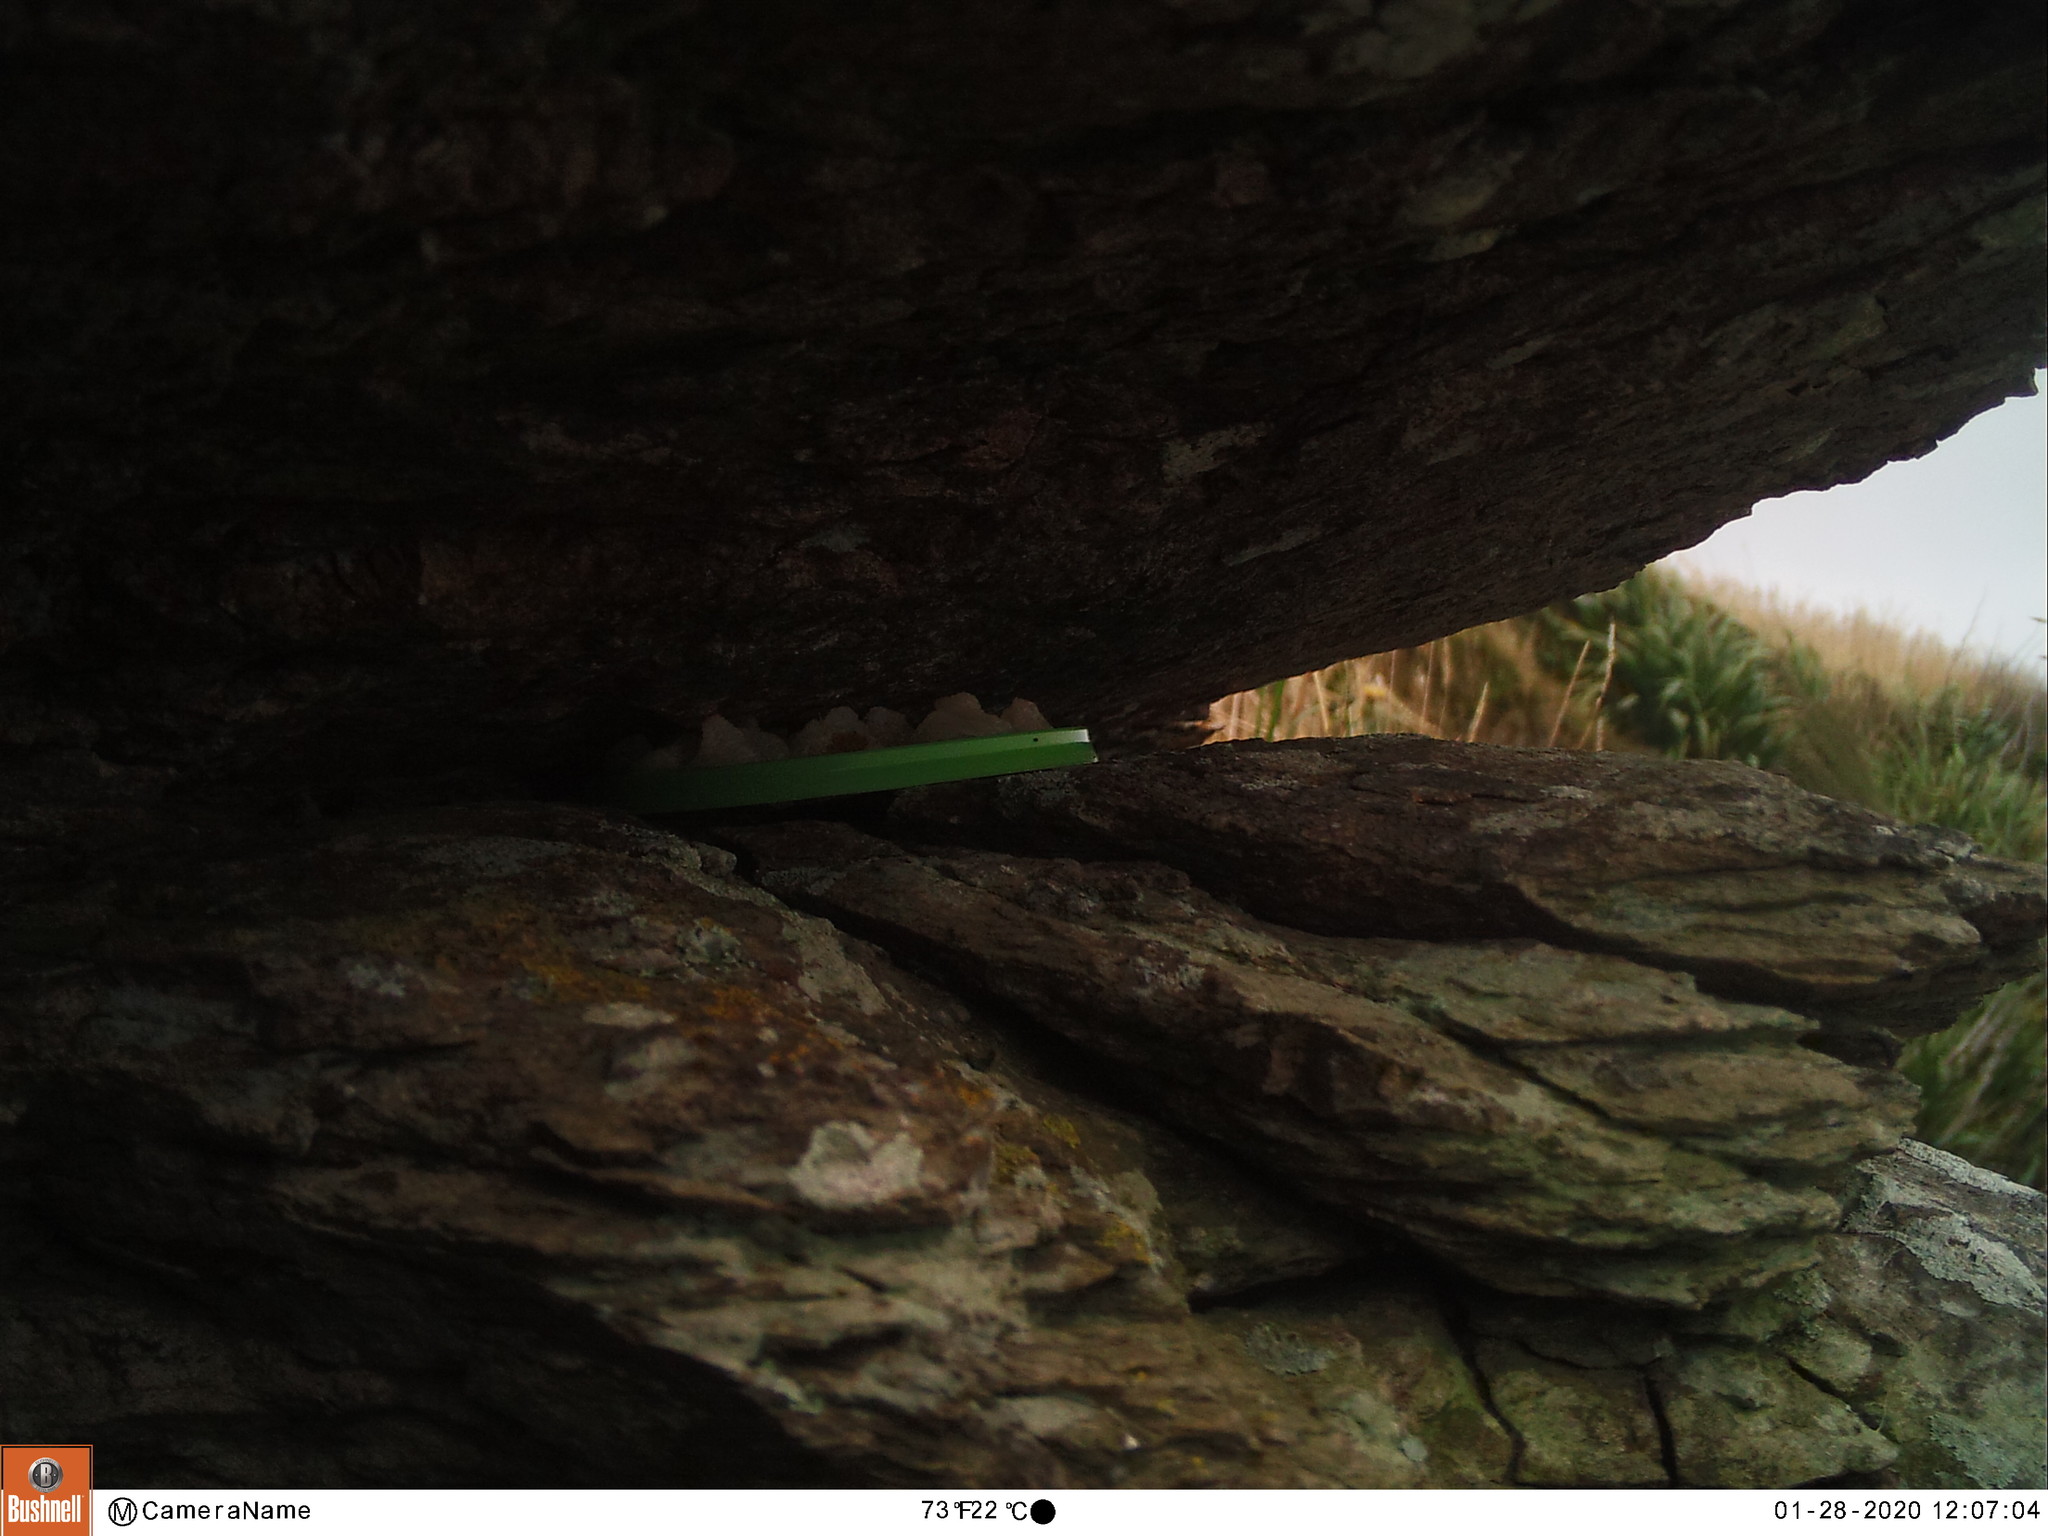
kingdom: Animalia
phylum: Chordata
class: Mammalia
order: Carnivora
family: Mustelidae
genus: Mustela
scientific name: Mustela nivalis
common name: Least weasel
